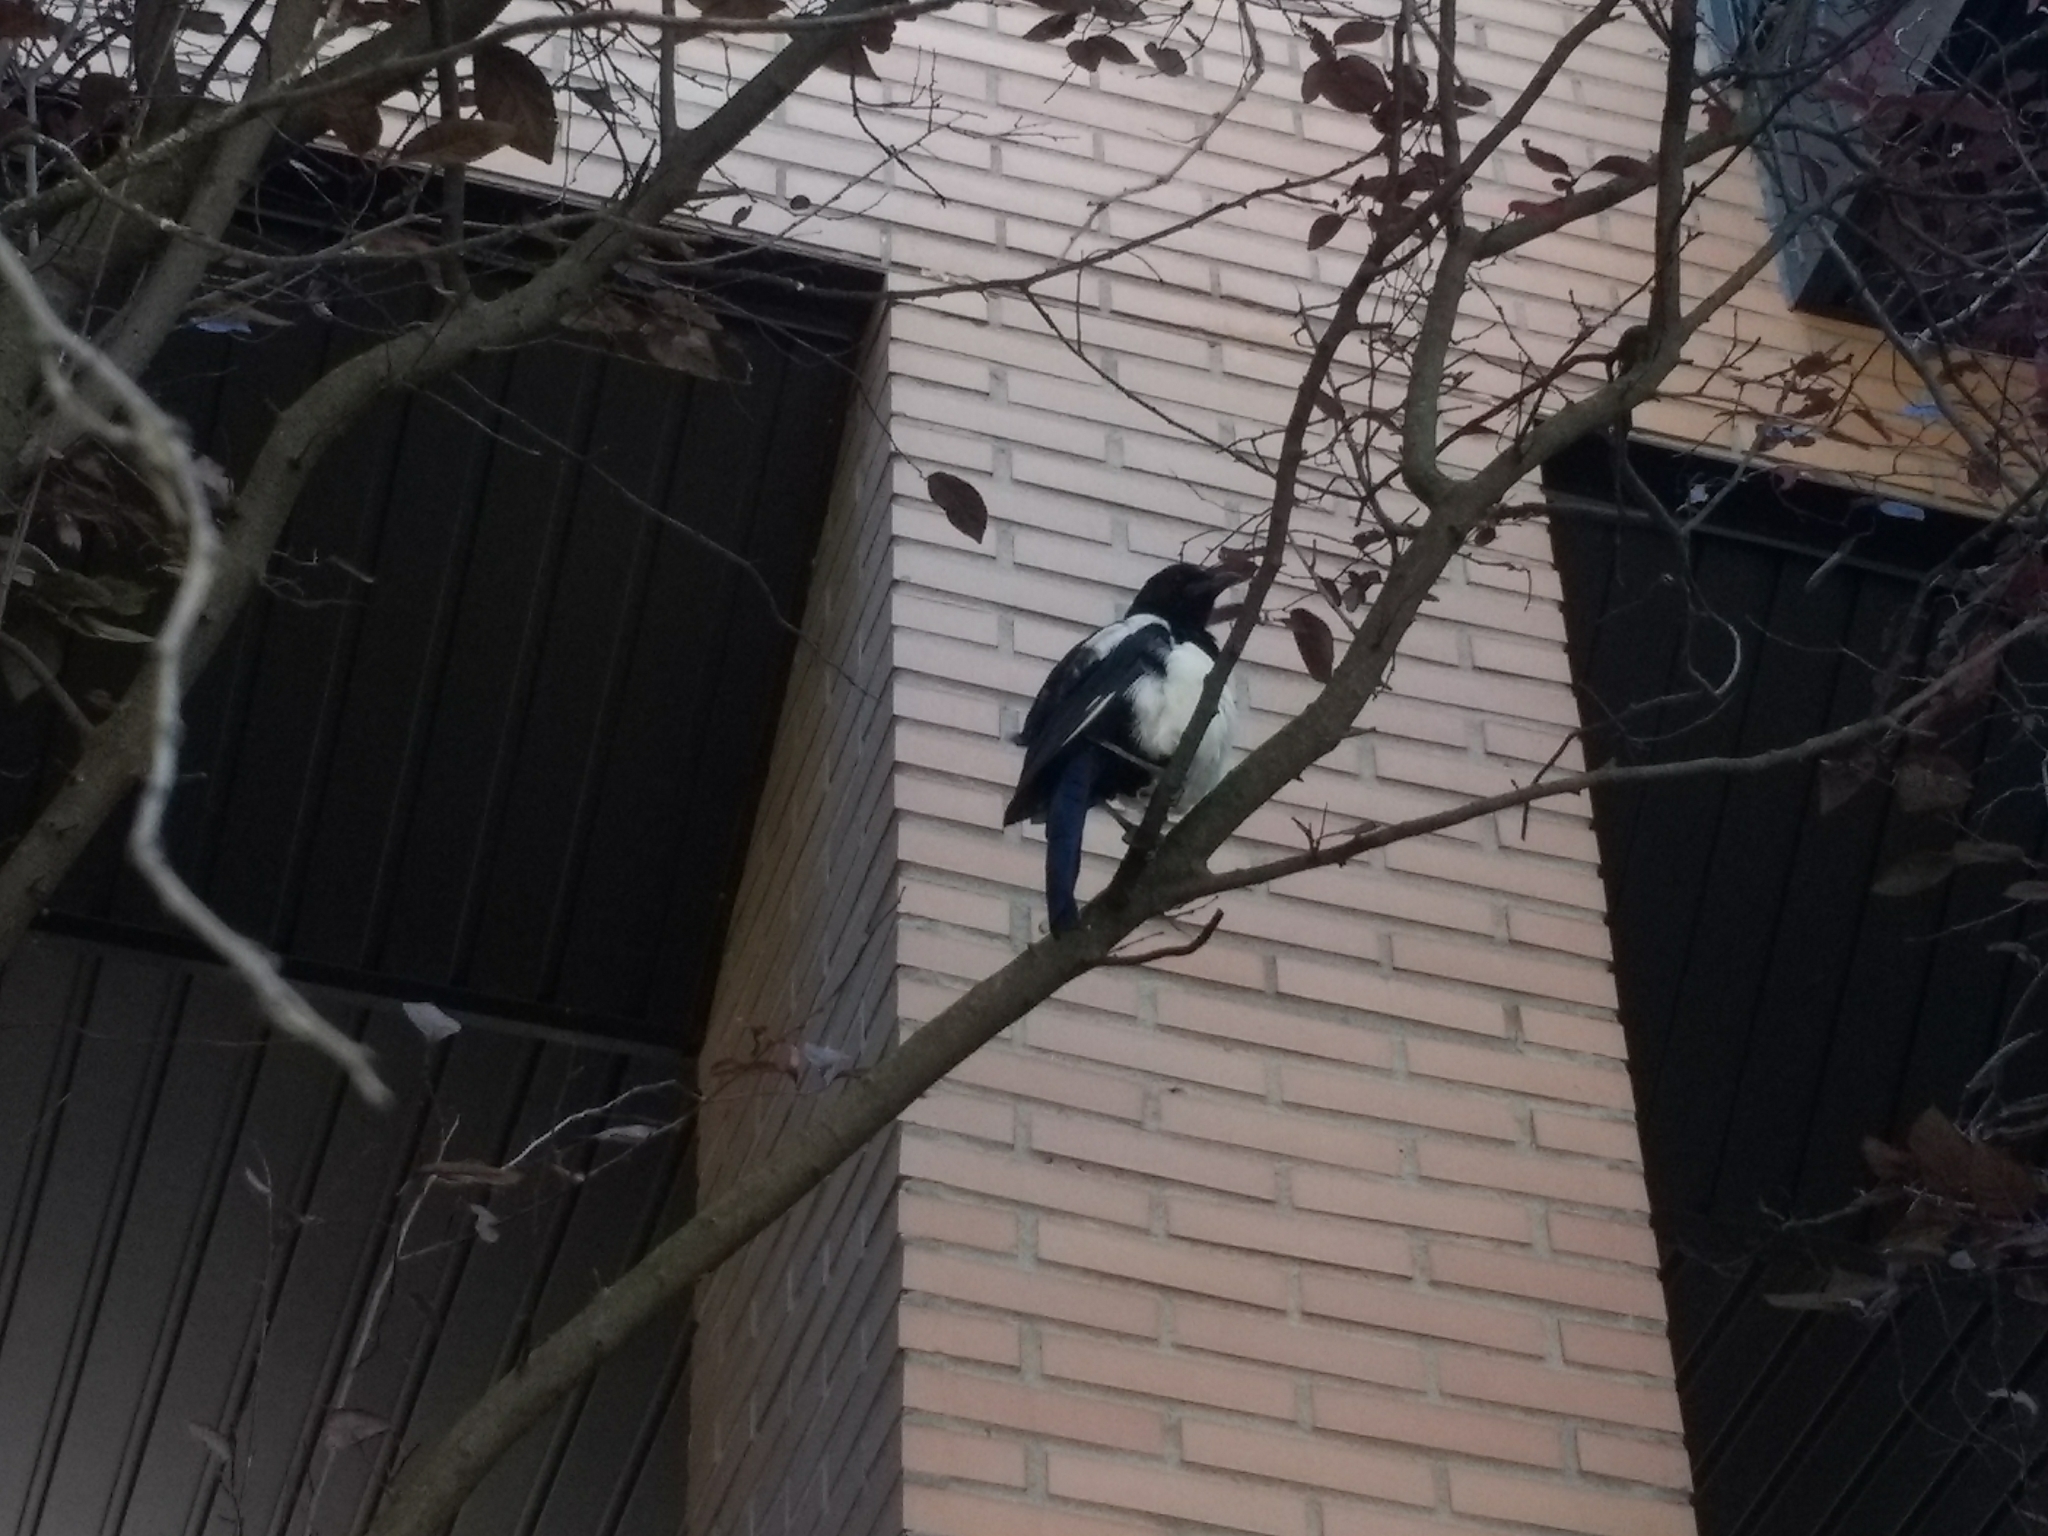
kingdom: Animalia
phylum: Chordata
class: Aves
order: Passeriformes
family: Corvidae
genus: Pica
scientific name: Pica pica
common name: Eurasian magpie
